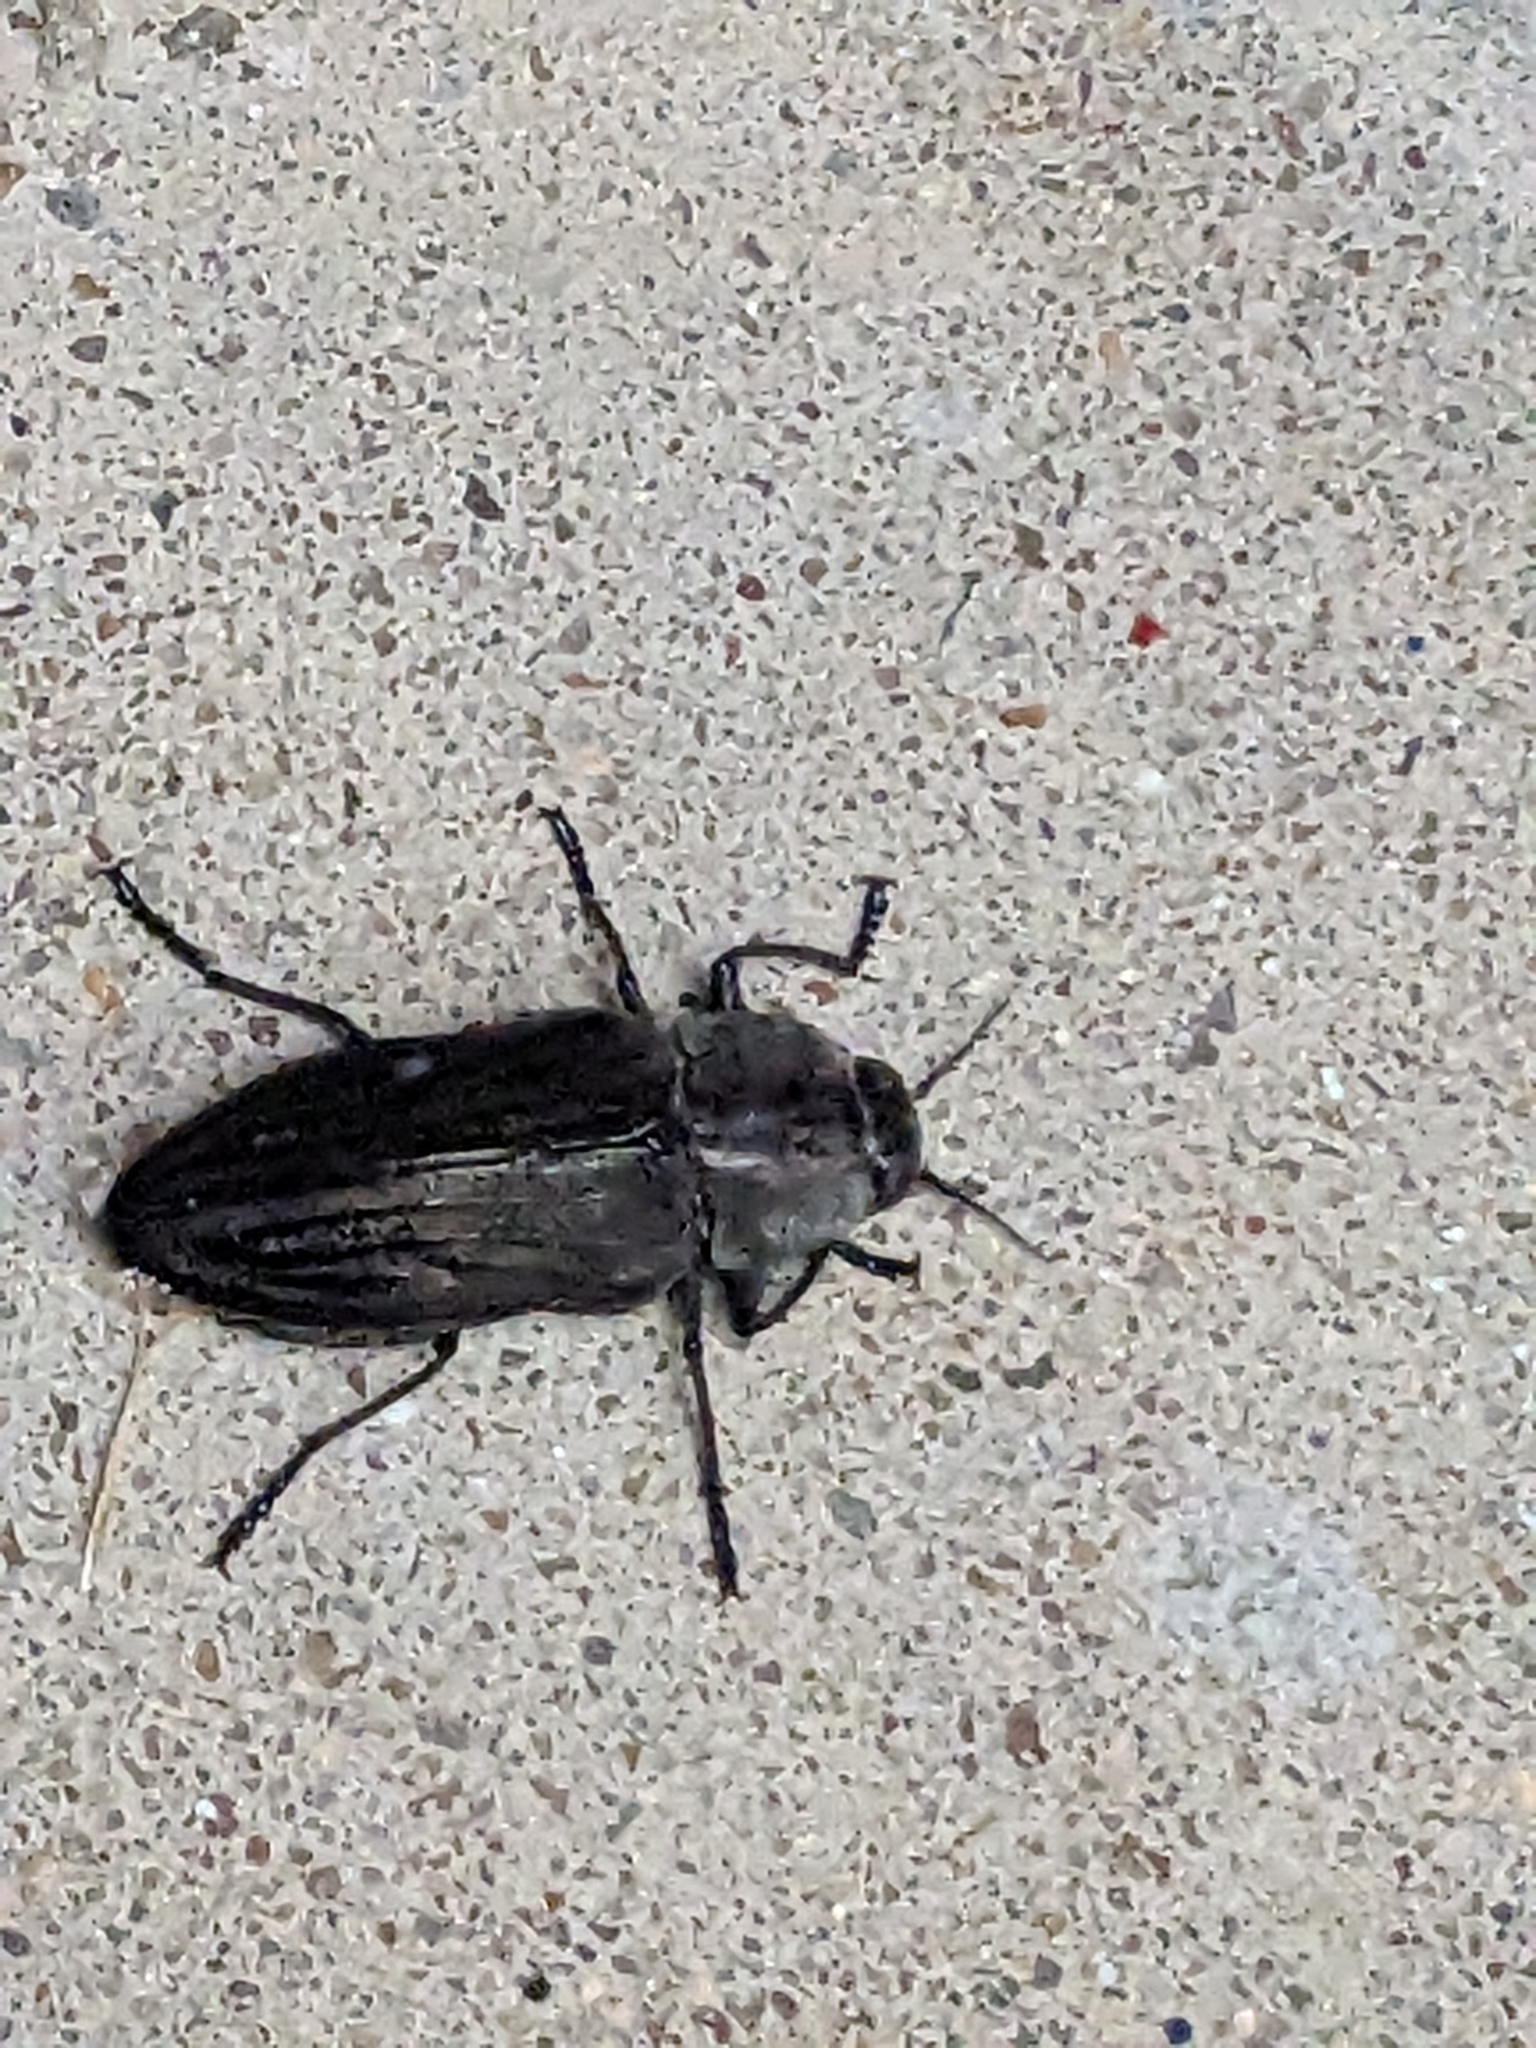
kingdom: Animalia
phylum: Arthropoda
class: Insecta
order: Coleoptera
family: Buprestidae
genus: Merimna
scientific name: Merimna atrata
